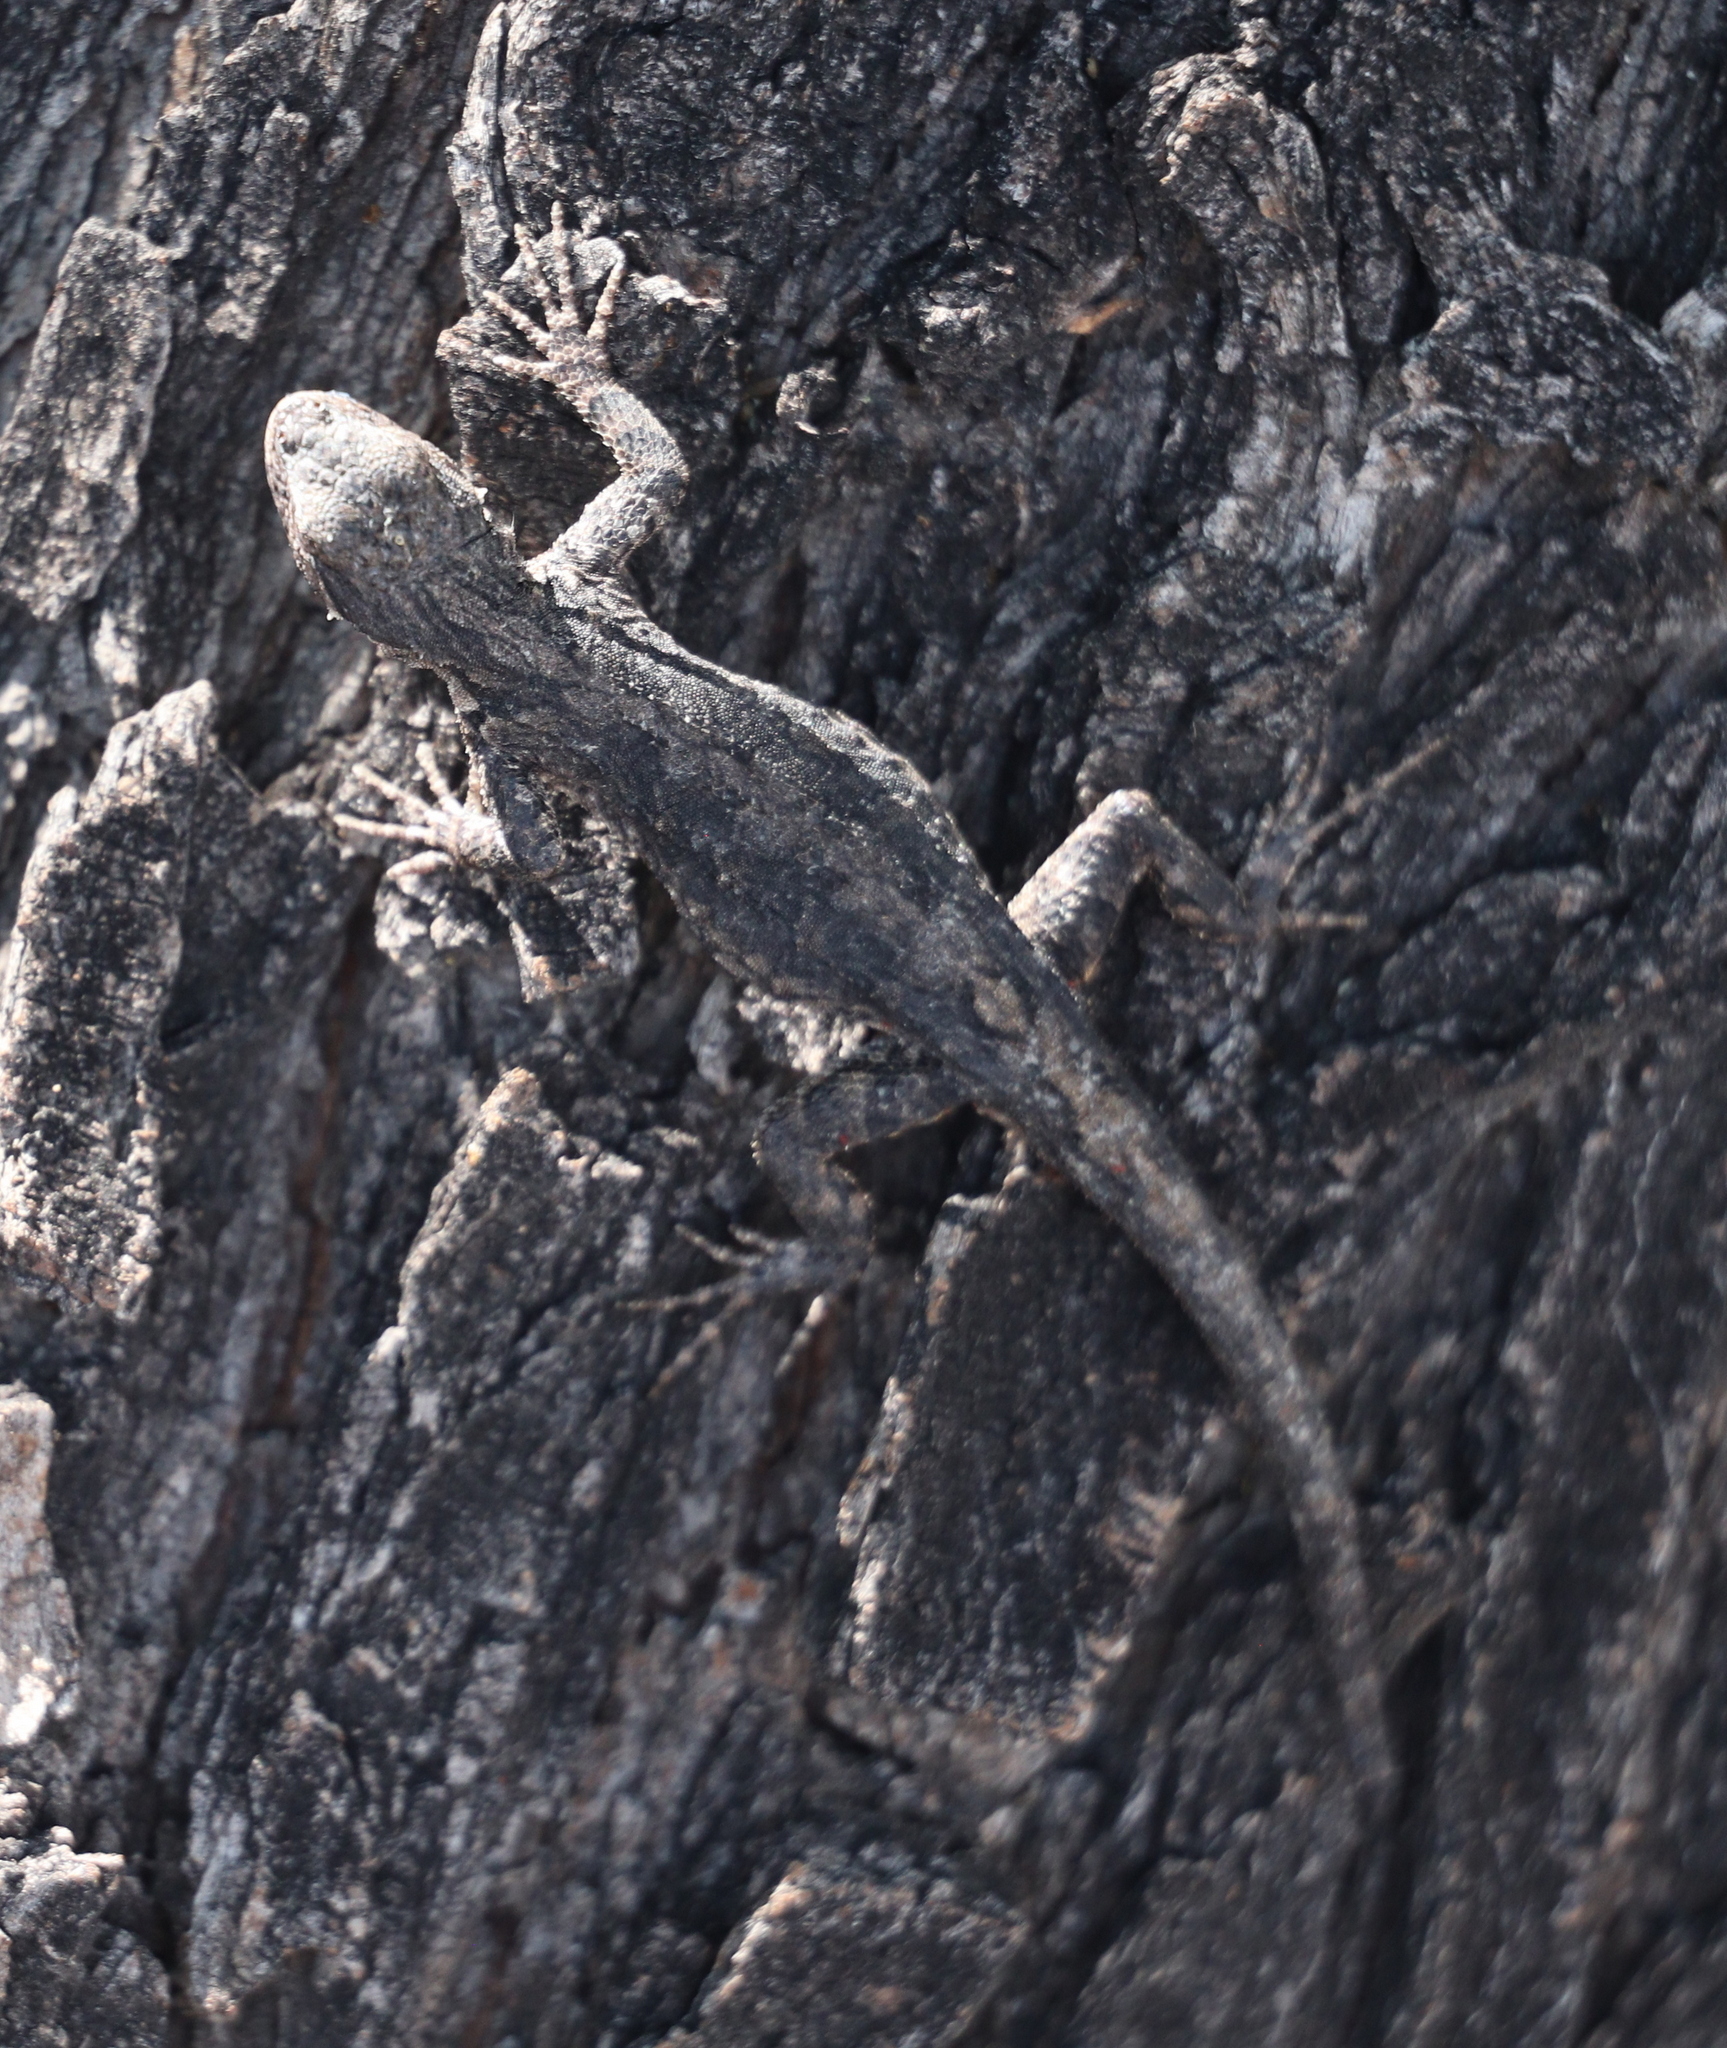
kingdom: Animalia
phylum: Chordata
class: Squamata
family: Phrynosomatidae
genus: Urosaurus
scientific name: Urosaurus ornatus
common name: Ornate tree lizard
